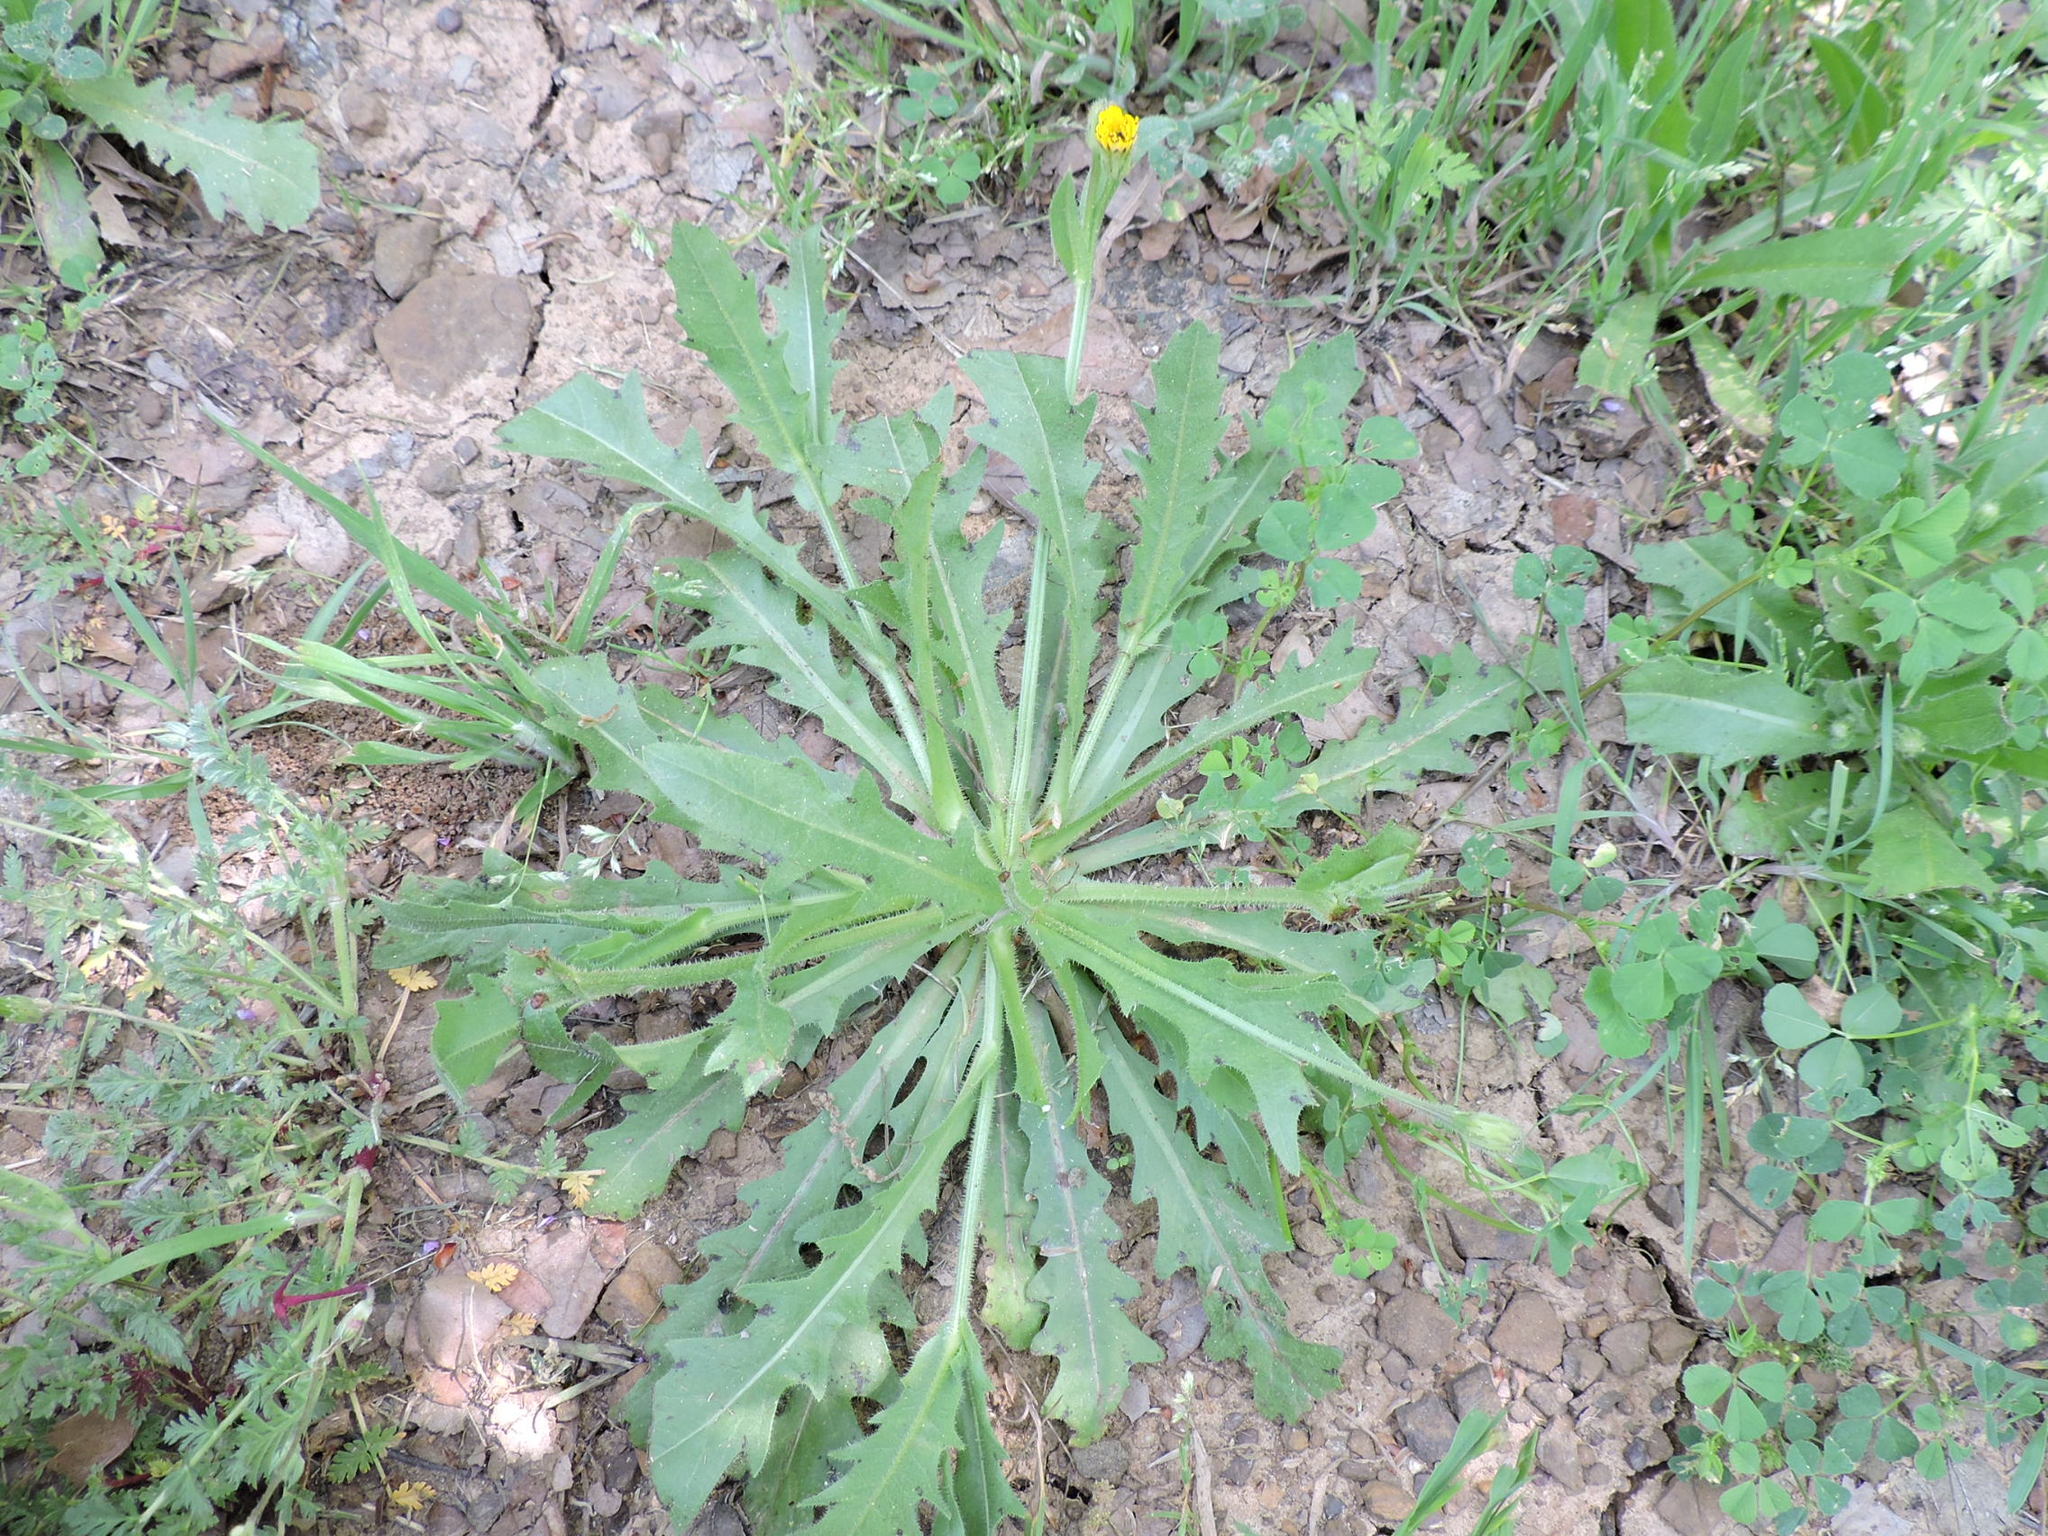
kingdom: Plantae
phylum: Tracheophyta
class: Magnoliopsida
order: Asterales
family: Asteraceae
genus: Hedypnois
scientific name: Hedypnois rhagadioloides
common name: Cretan weed
